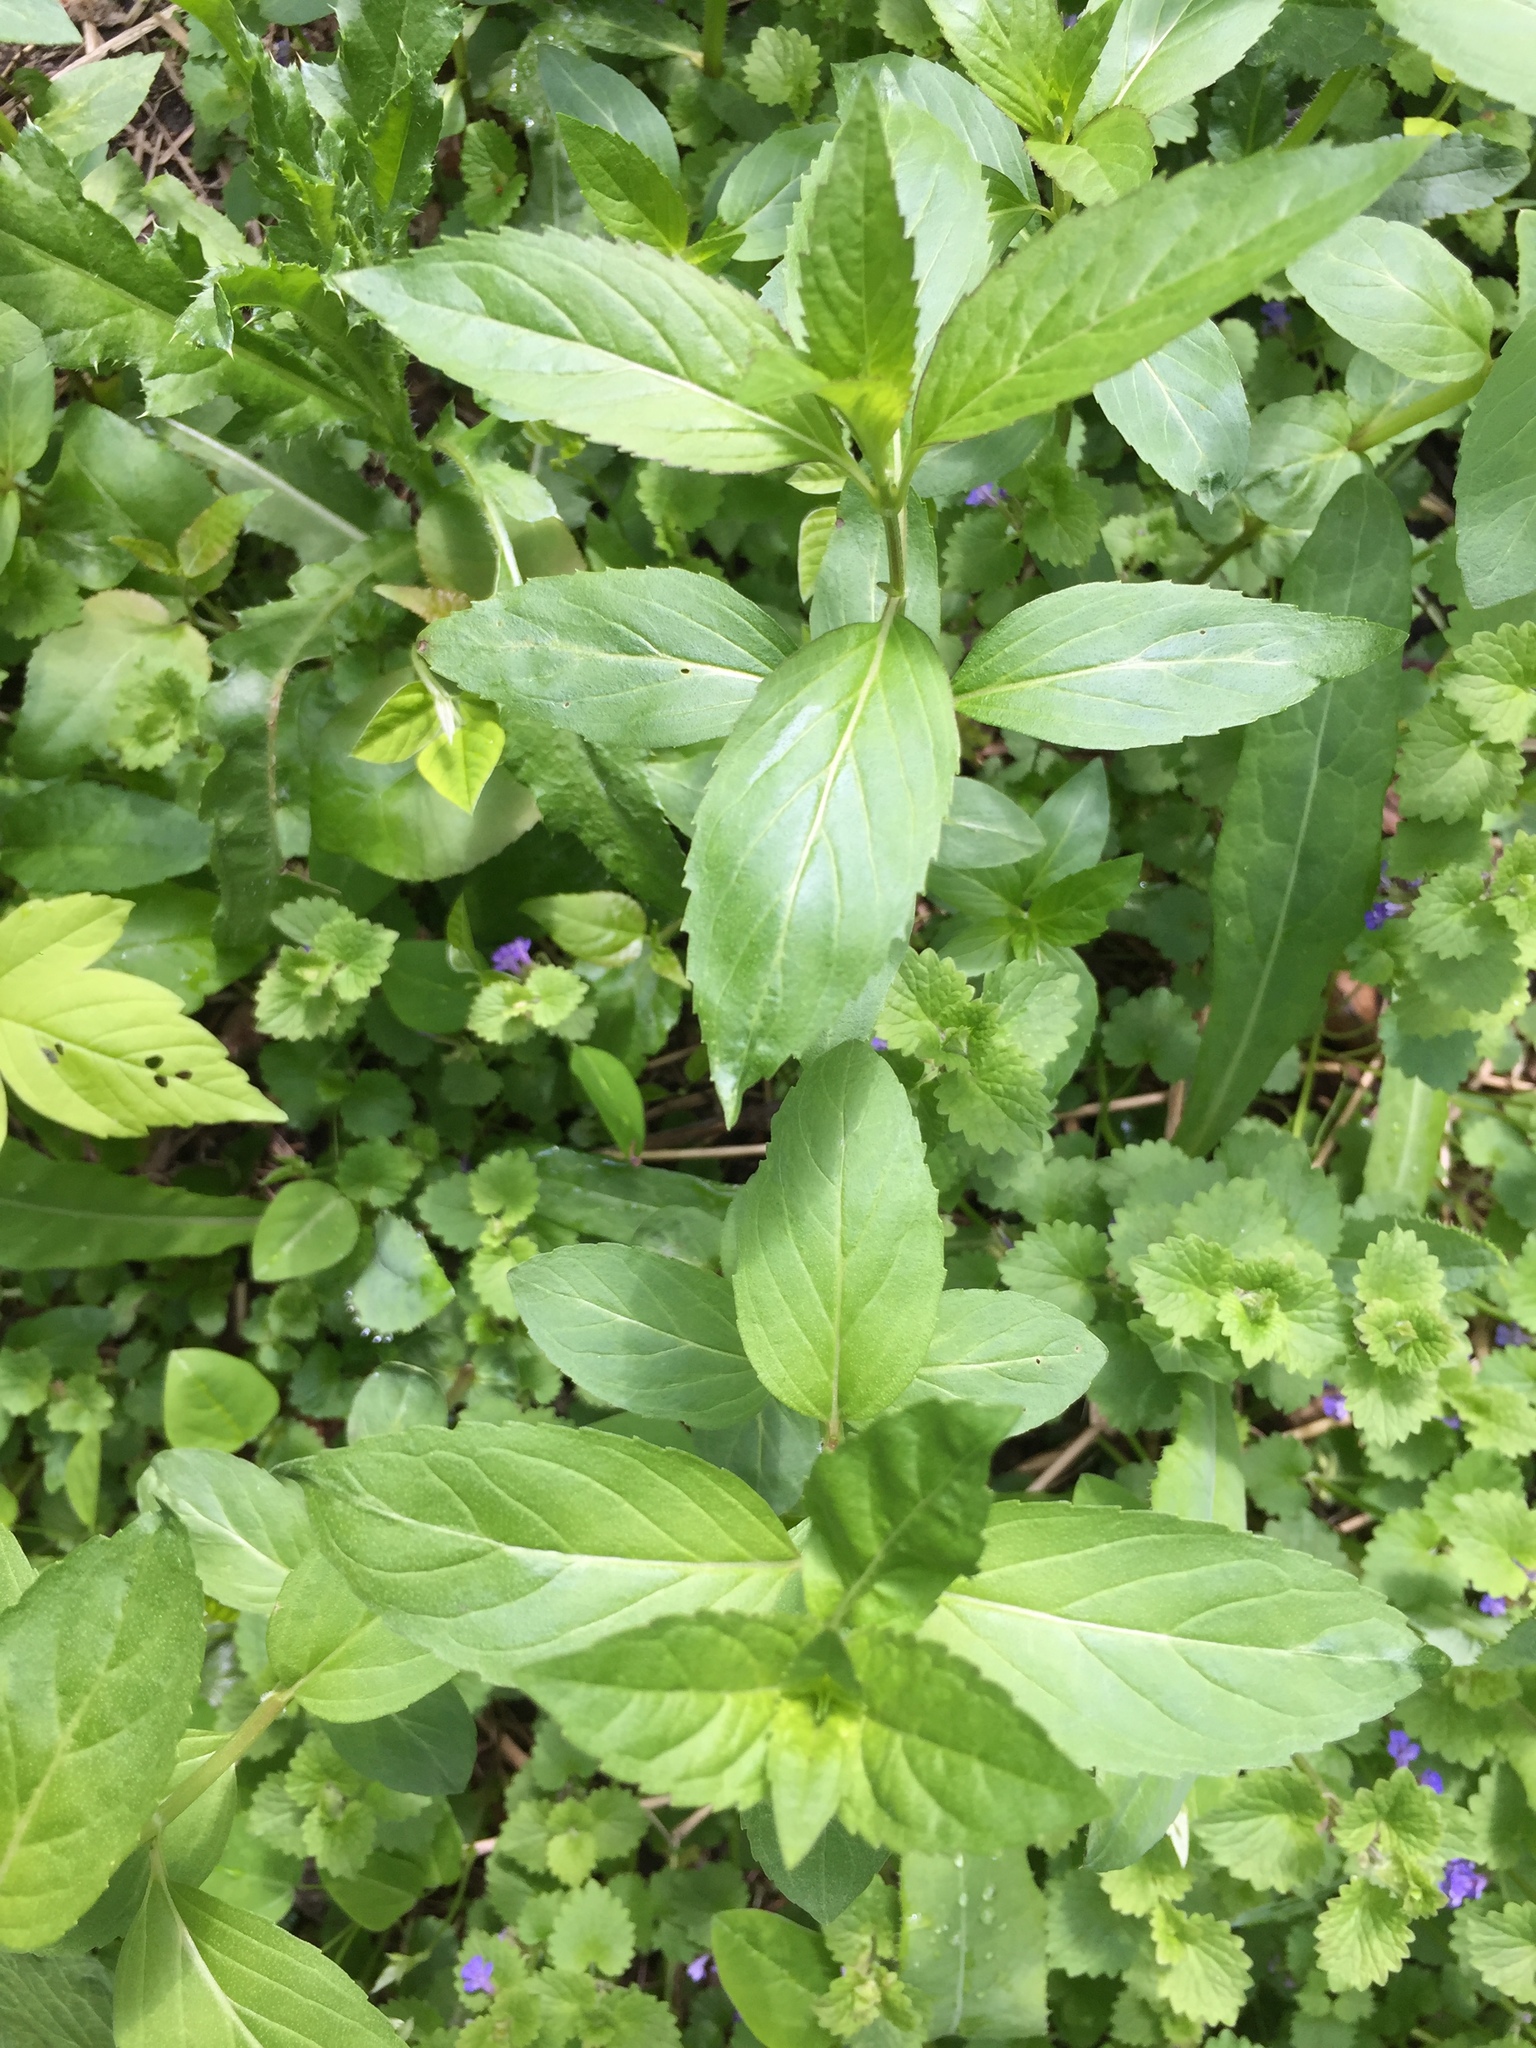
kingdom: Plantae
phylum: Tracheophyta
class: Magnoliopsida
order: Lamiales
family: Lamiaceae
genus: Mentha
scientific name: Mentha canadensis
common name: American corn mint
